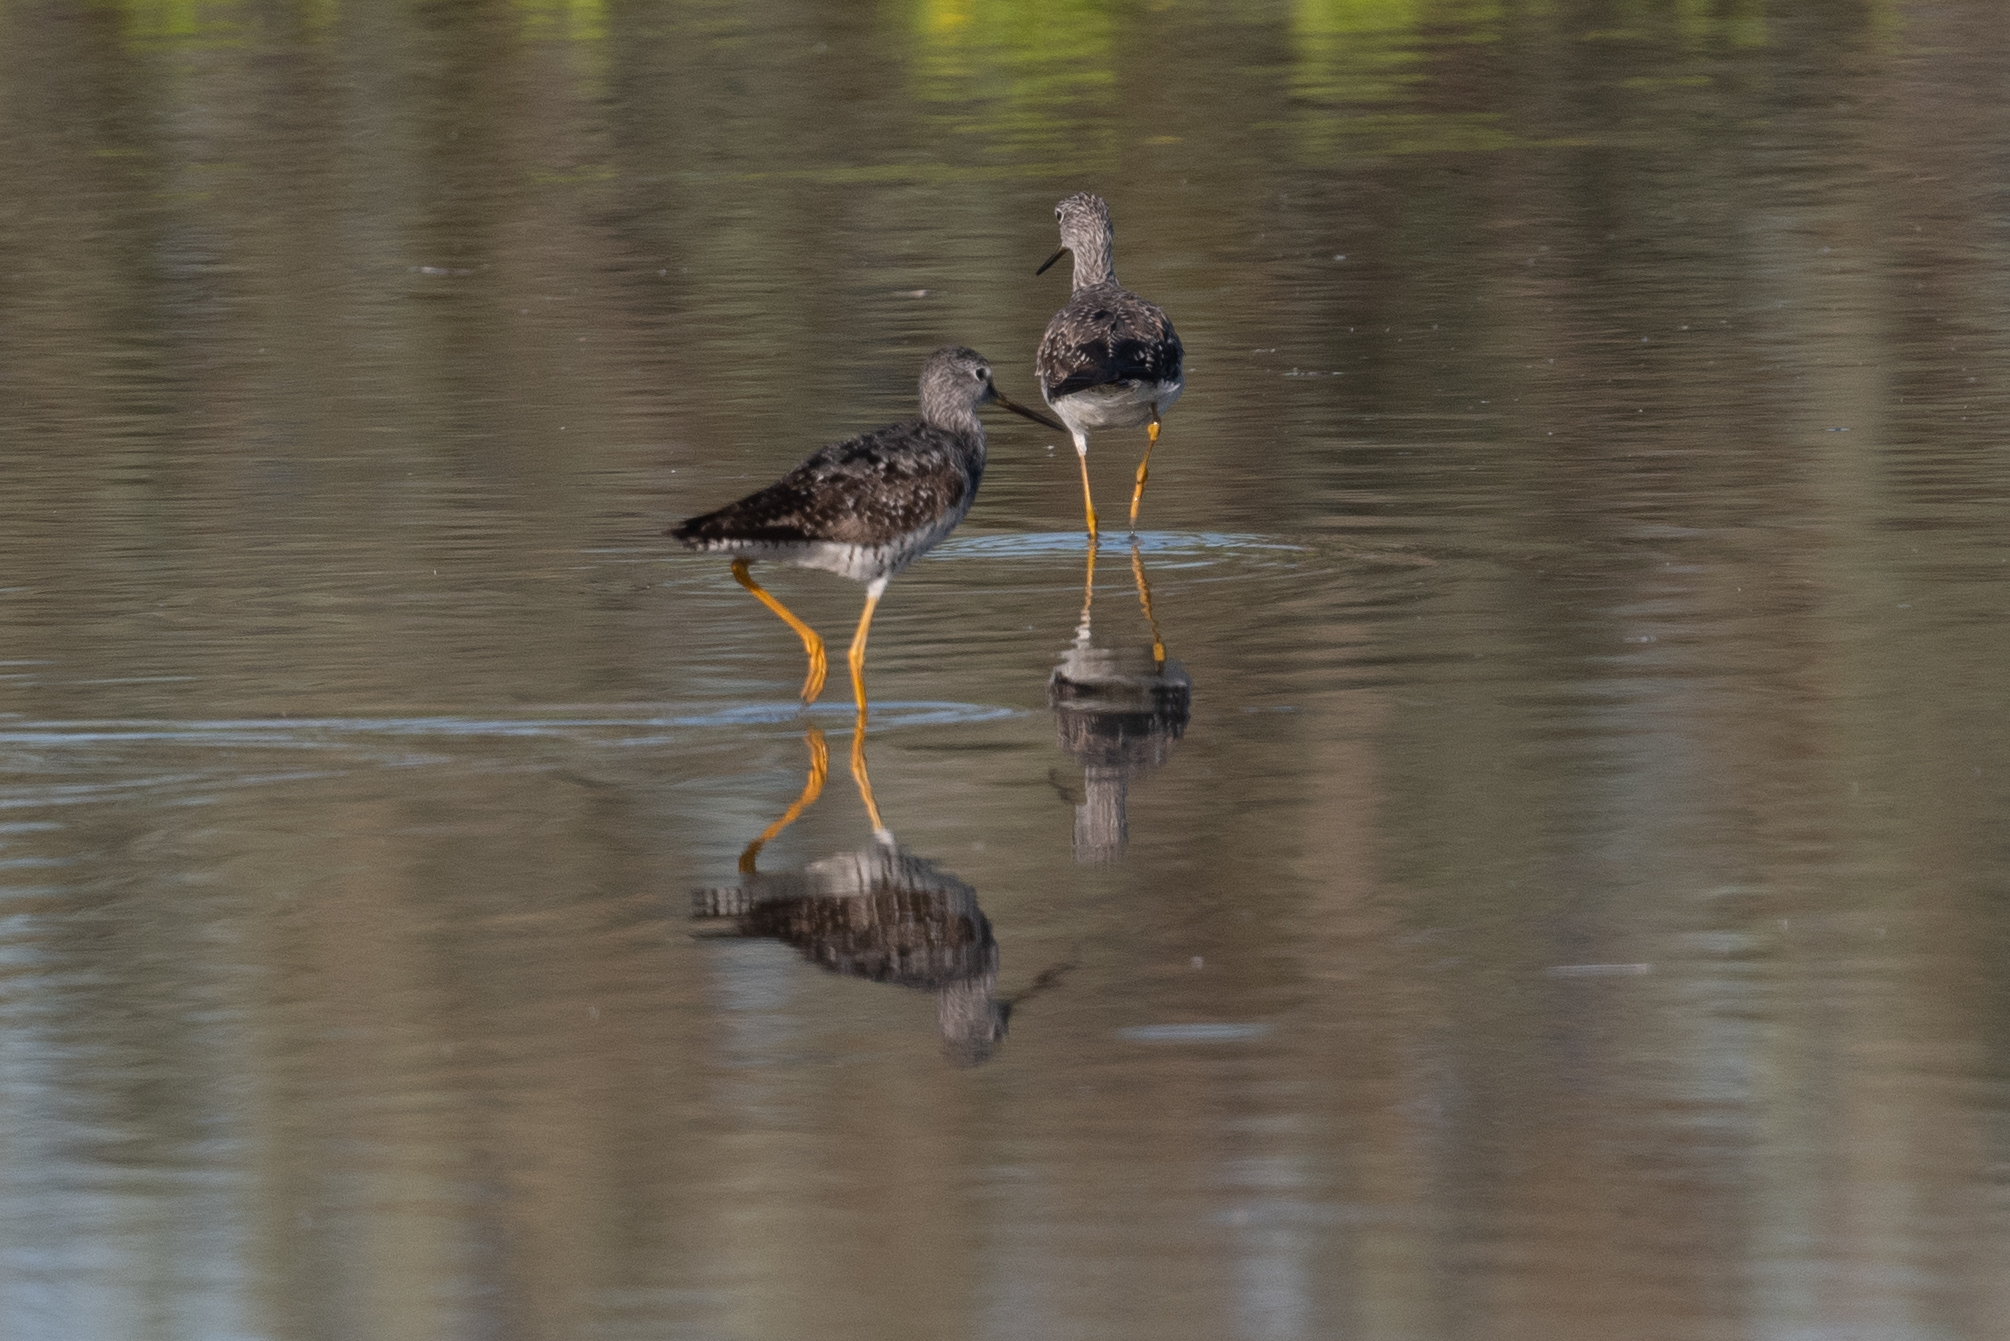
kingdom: Animalia
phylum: Chordata
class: Aves
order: Charadriiformes
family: Scolopacidae
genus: Tringa
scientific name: Tringa melanoleuca
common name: Greater yellowlegs
